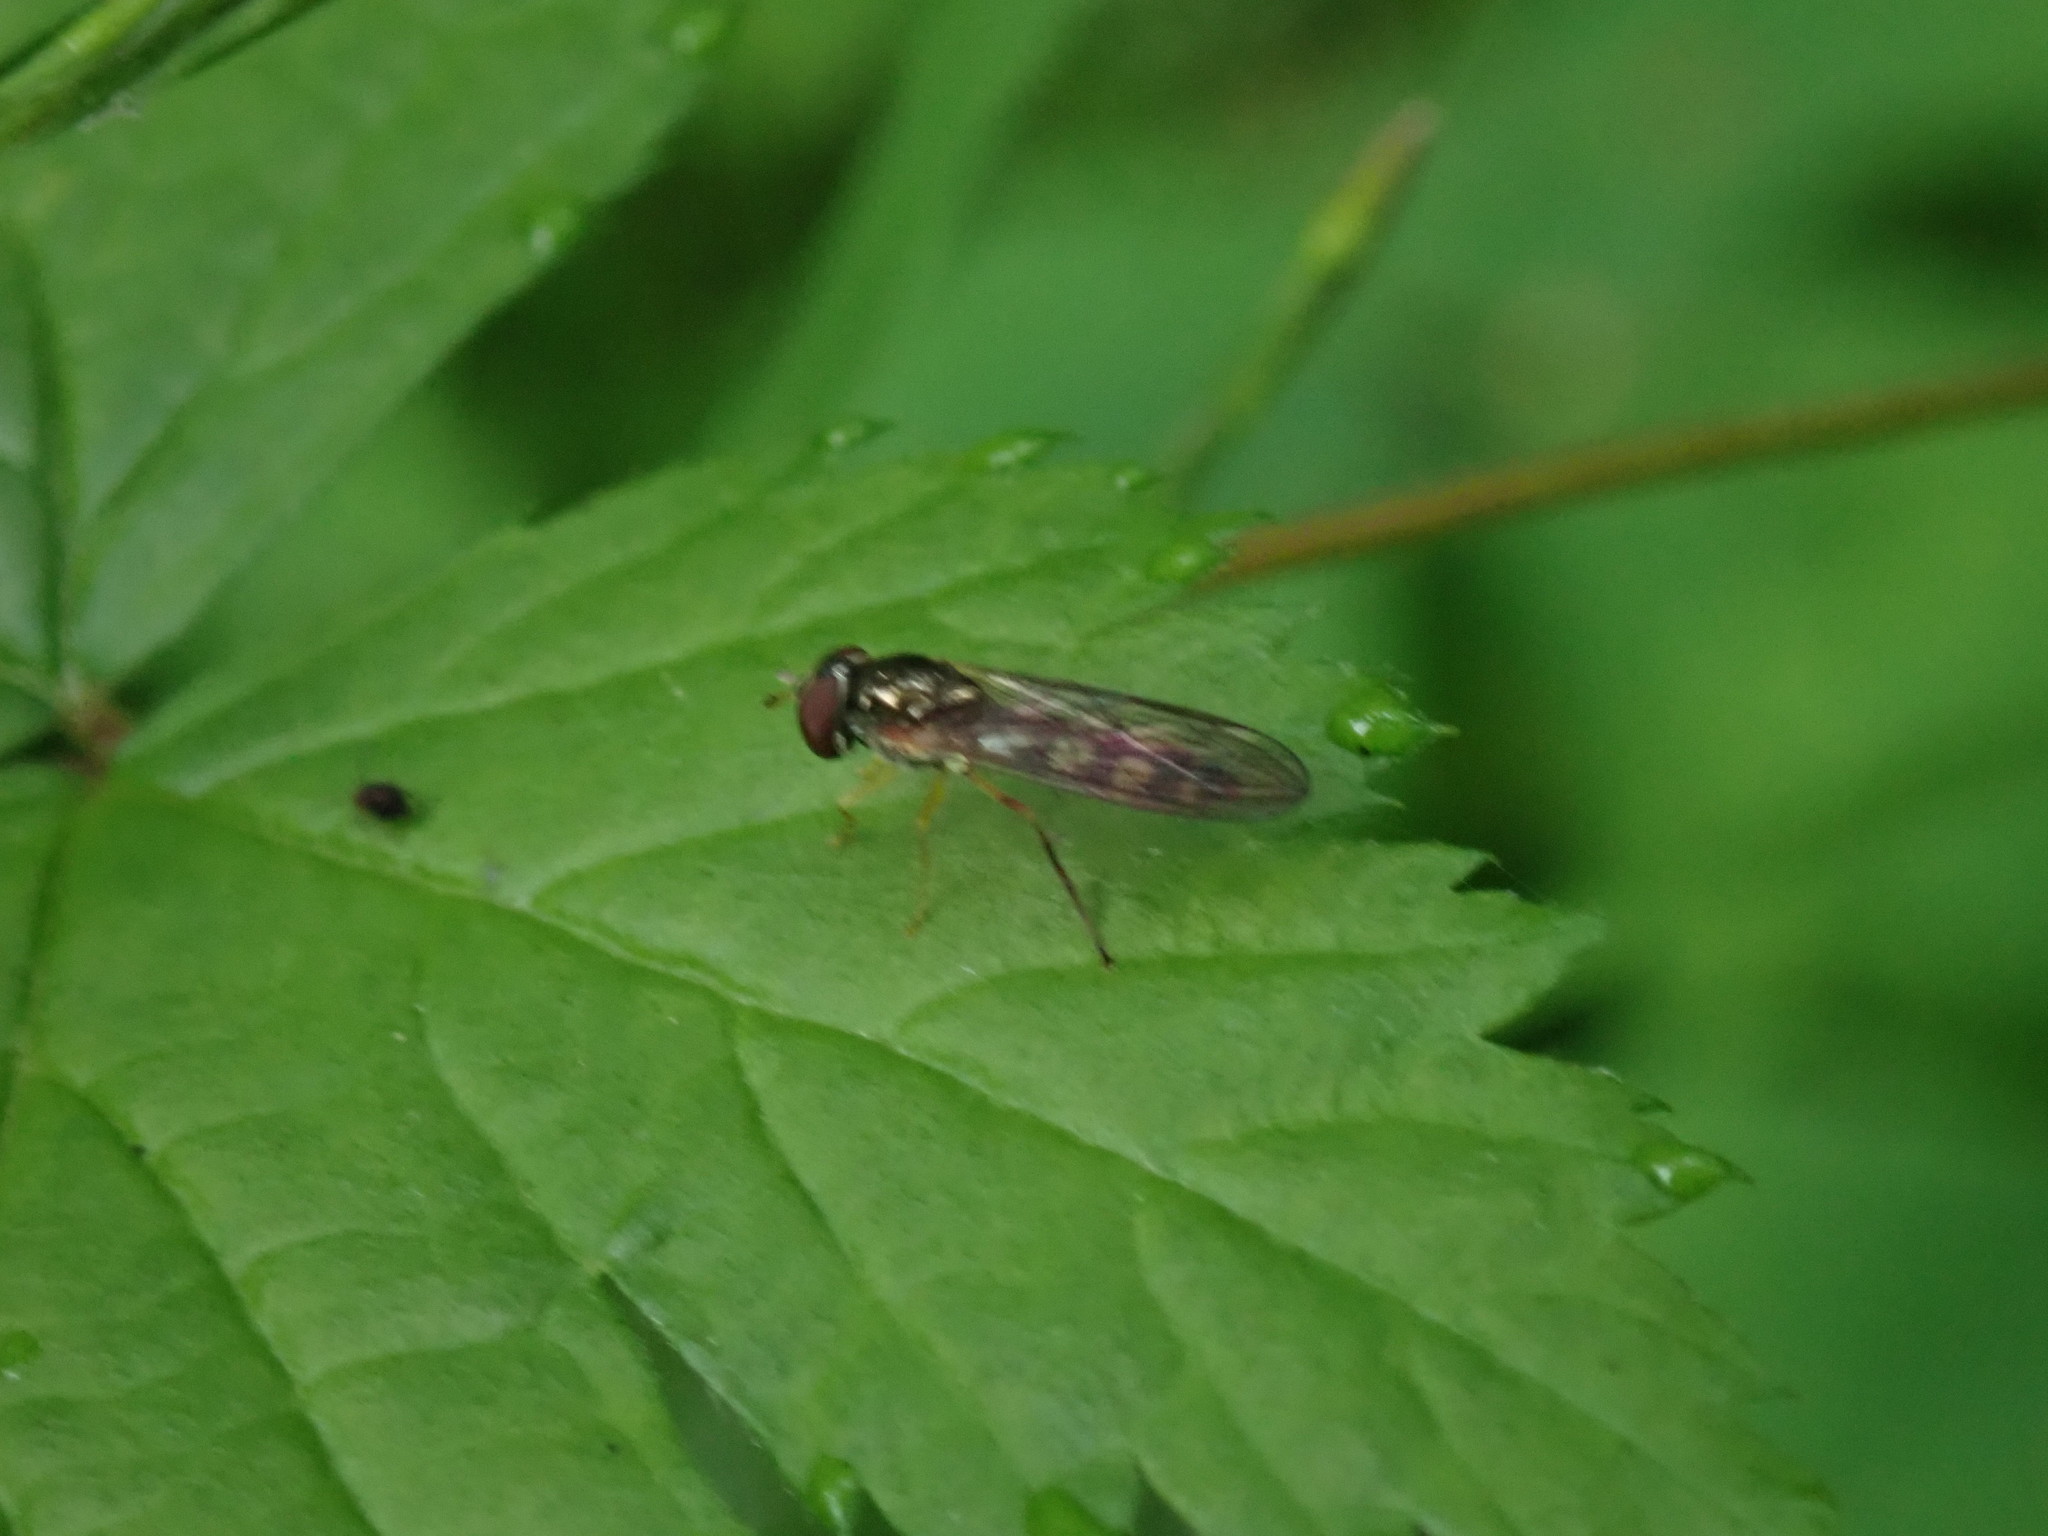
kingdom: Animalia
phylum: Arthropoda
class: Insecta
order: Diptera
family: Syrphidae
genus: Melanostoma
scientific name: Melanostoma mellina
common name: Hover fly
